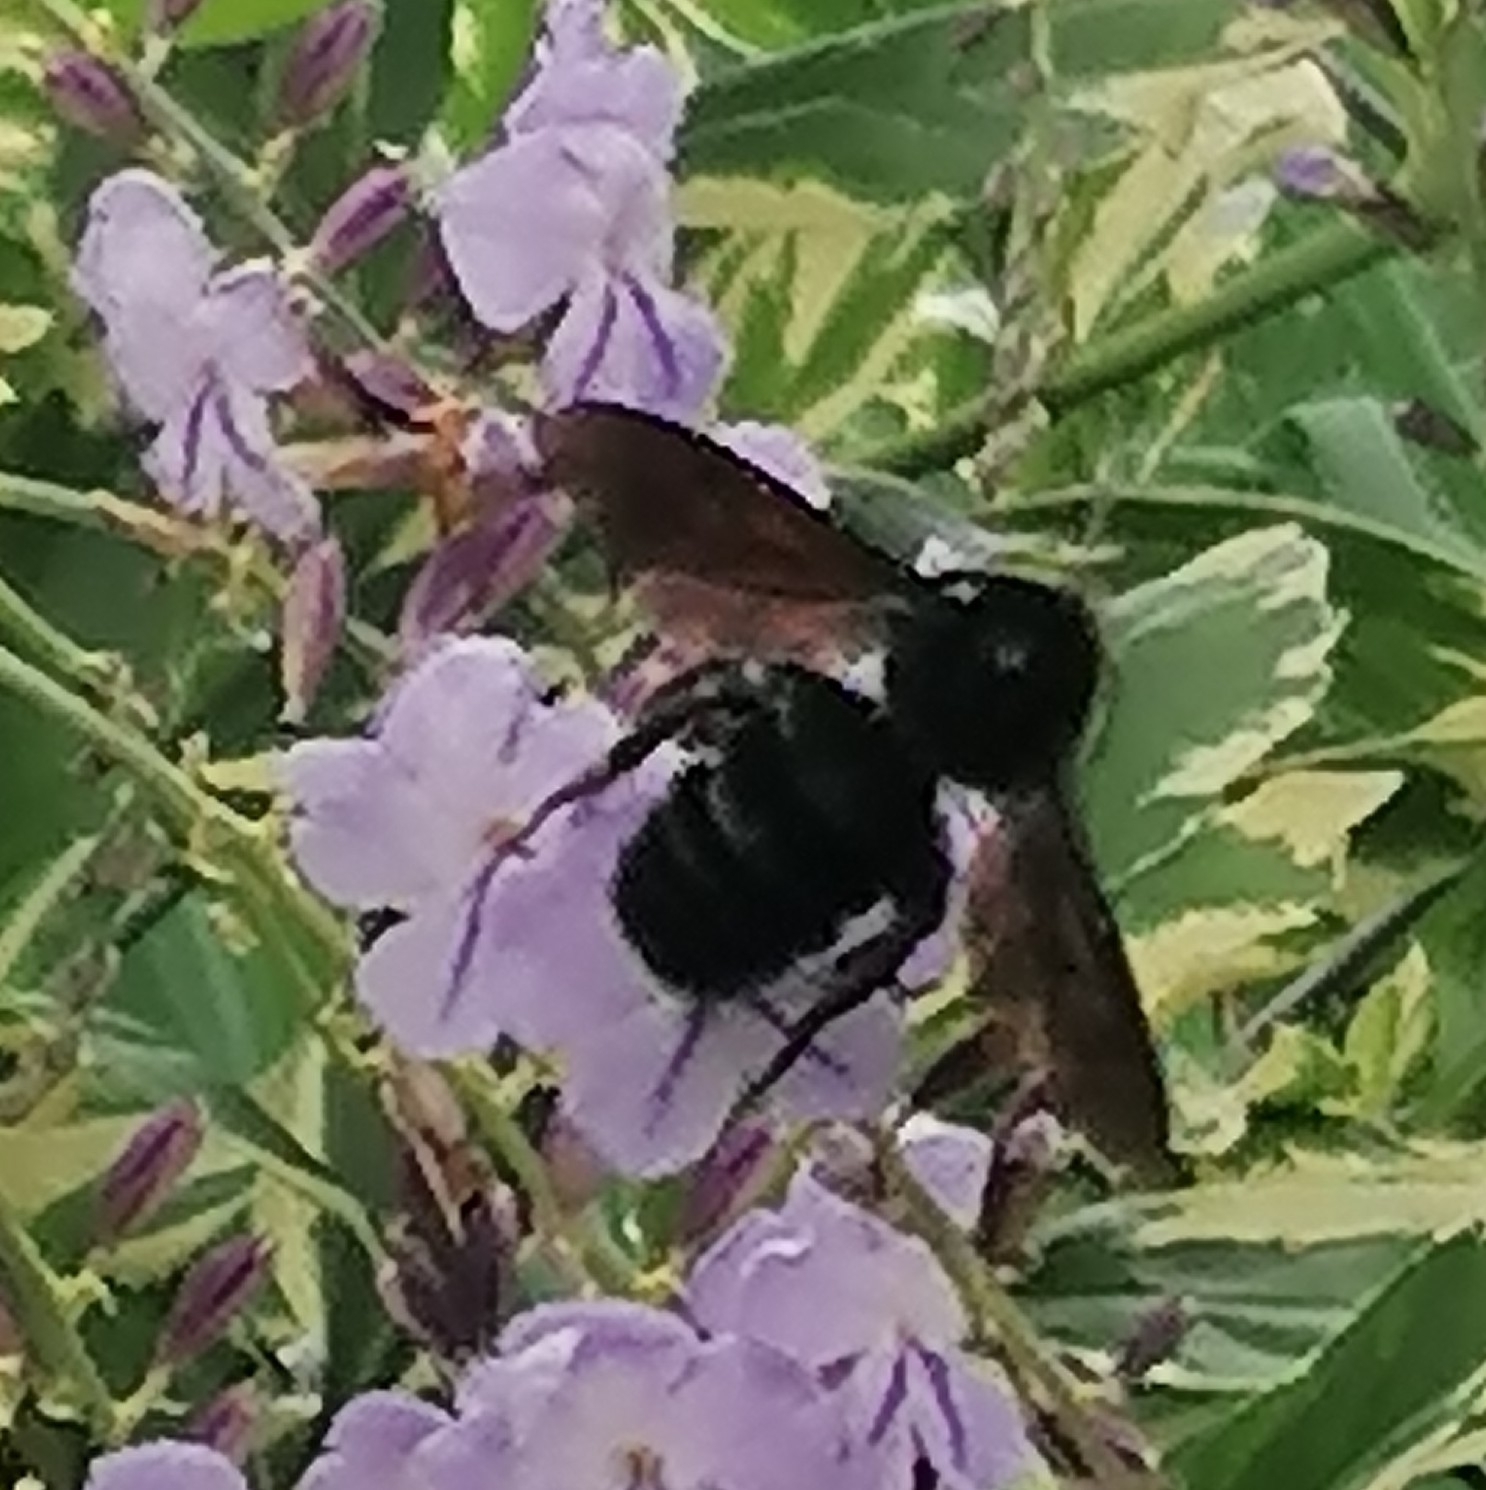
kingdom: Animalia
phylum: Arthropoda
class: Insecta
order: Hymenoptera
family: Apidae
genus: Bombus
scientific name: Bombus pullatus
